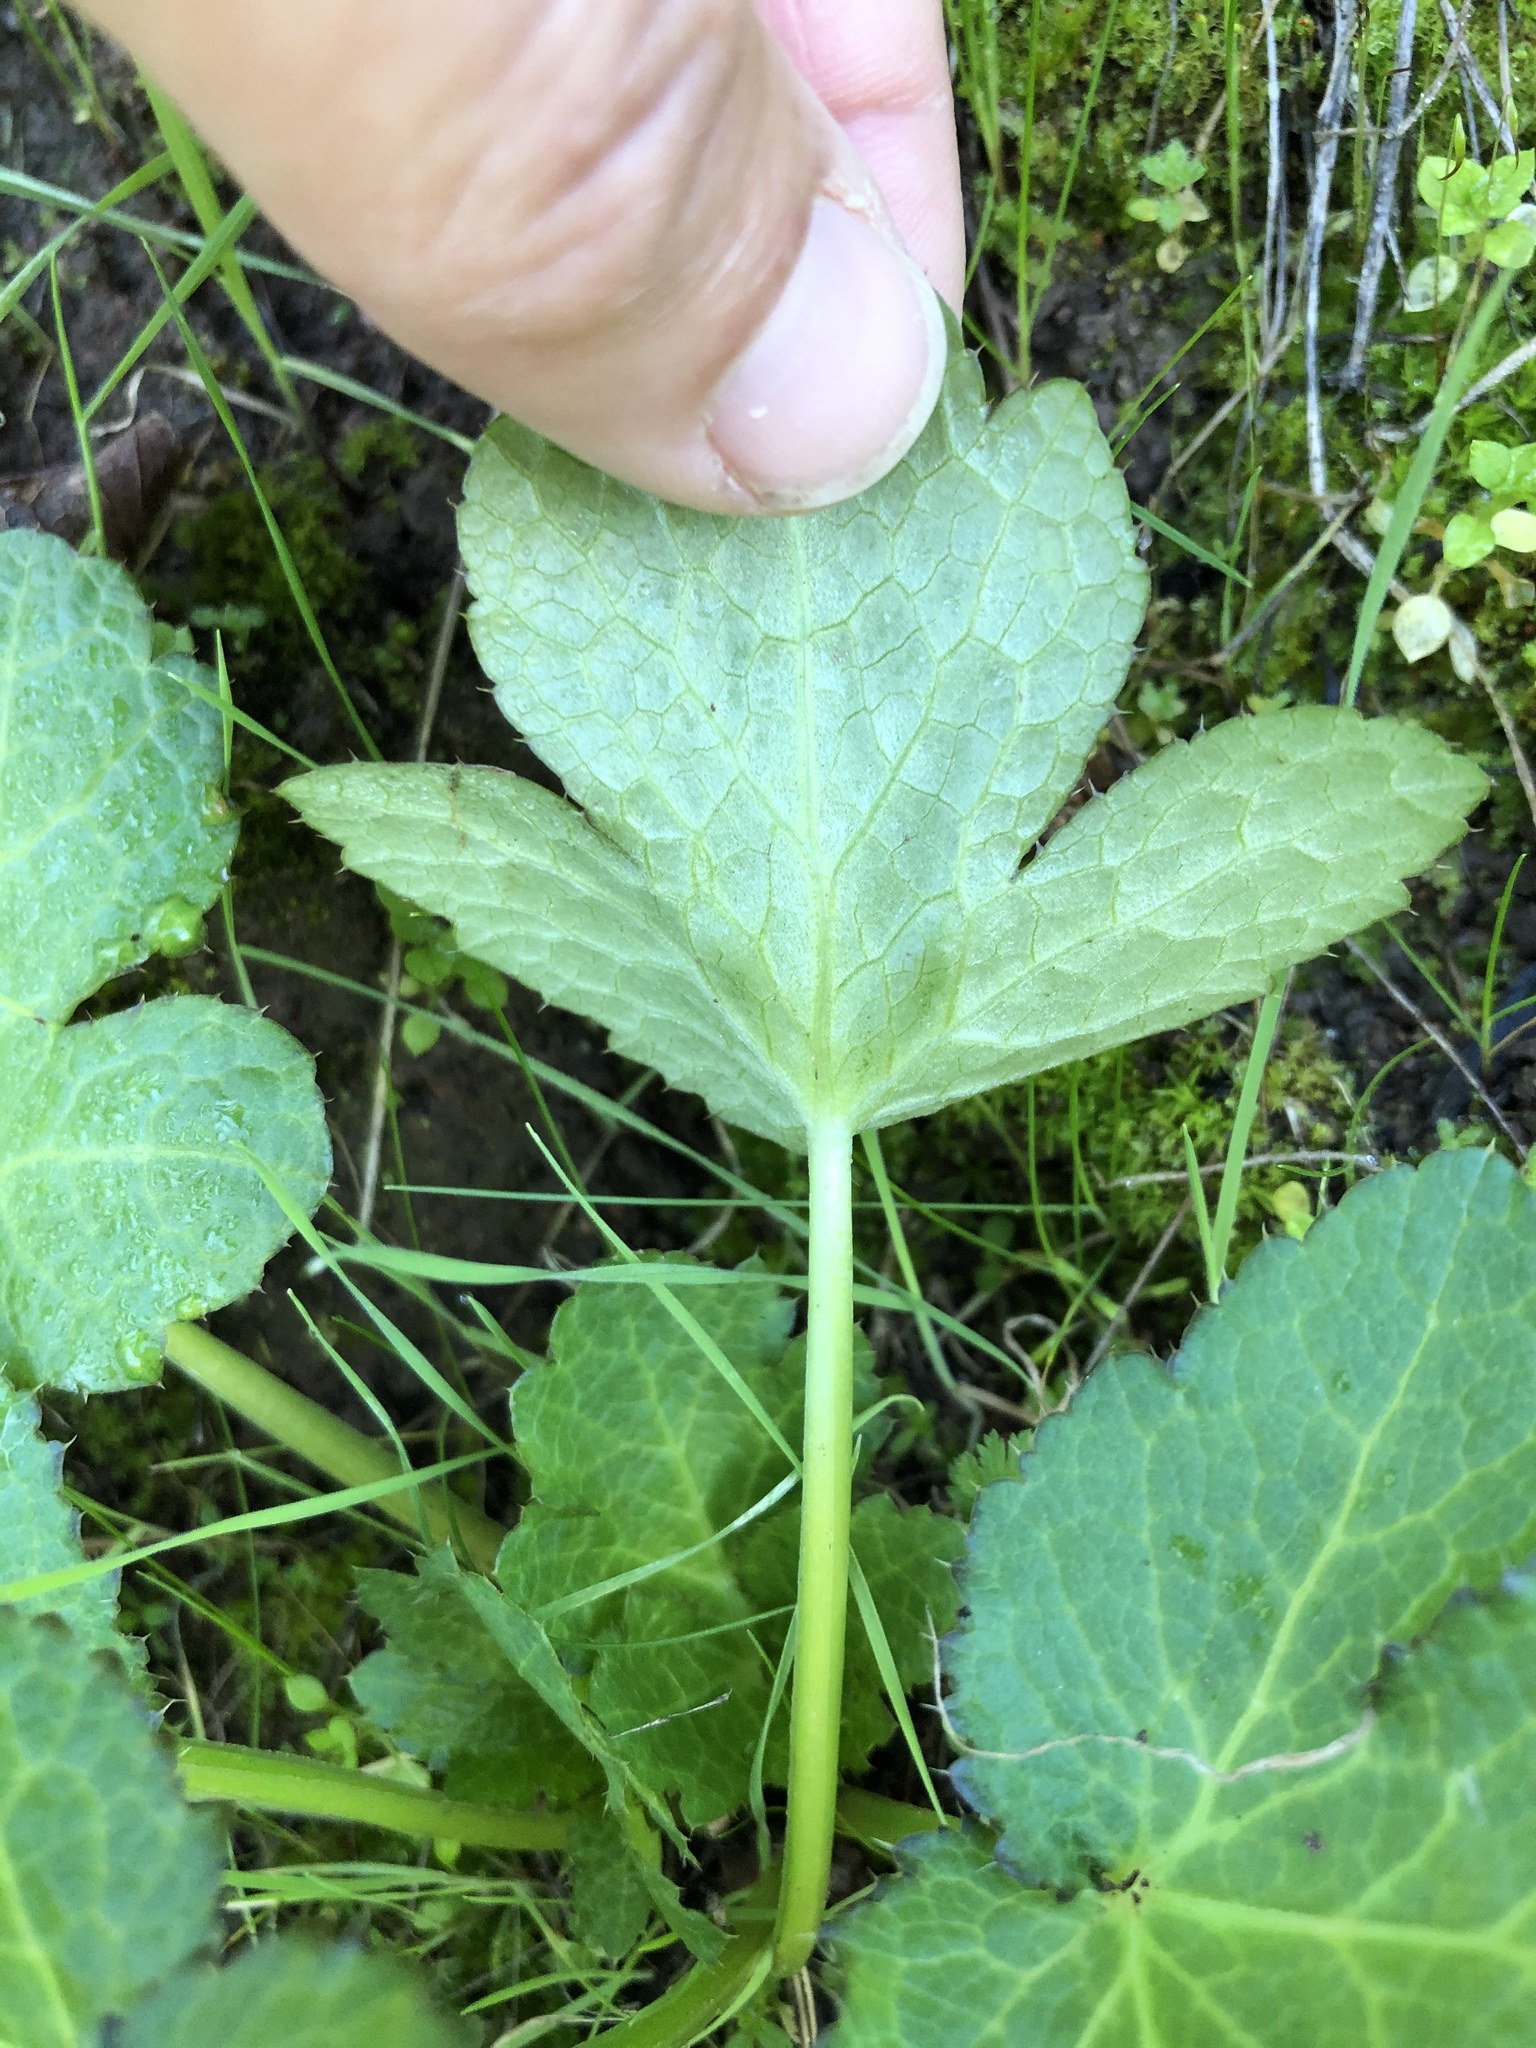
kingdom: Plantae
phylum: Tracheophyta
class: Magnoliopsida
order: Apiales
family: Apiaceae
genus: Sanicula
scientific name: Sanicula crassicaulis
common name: Western snakeroot
